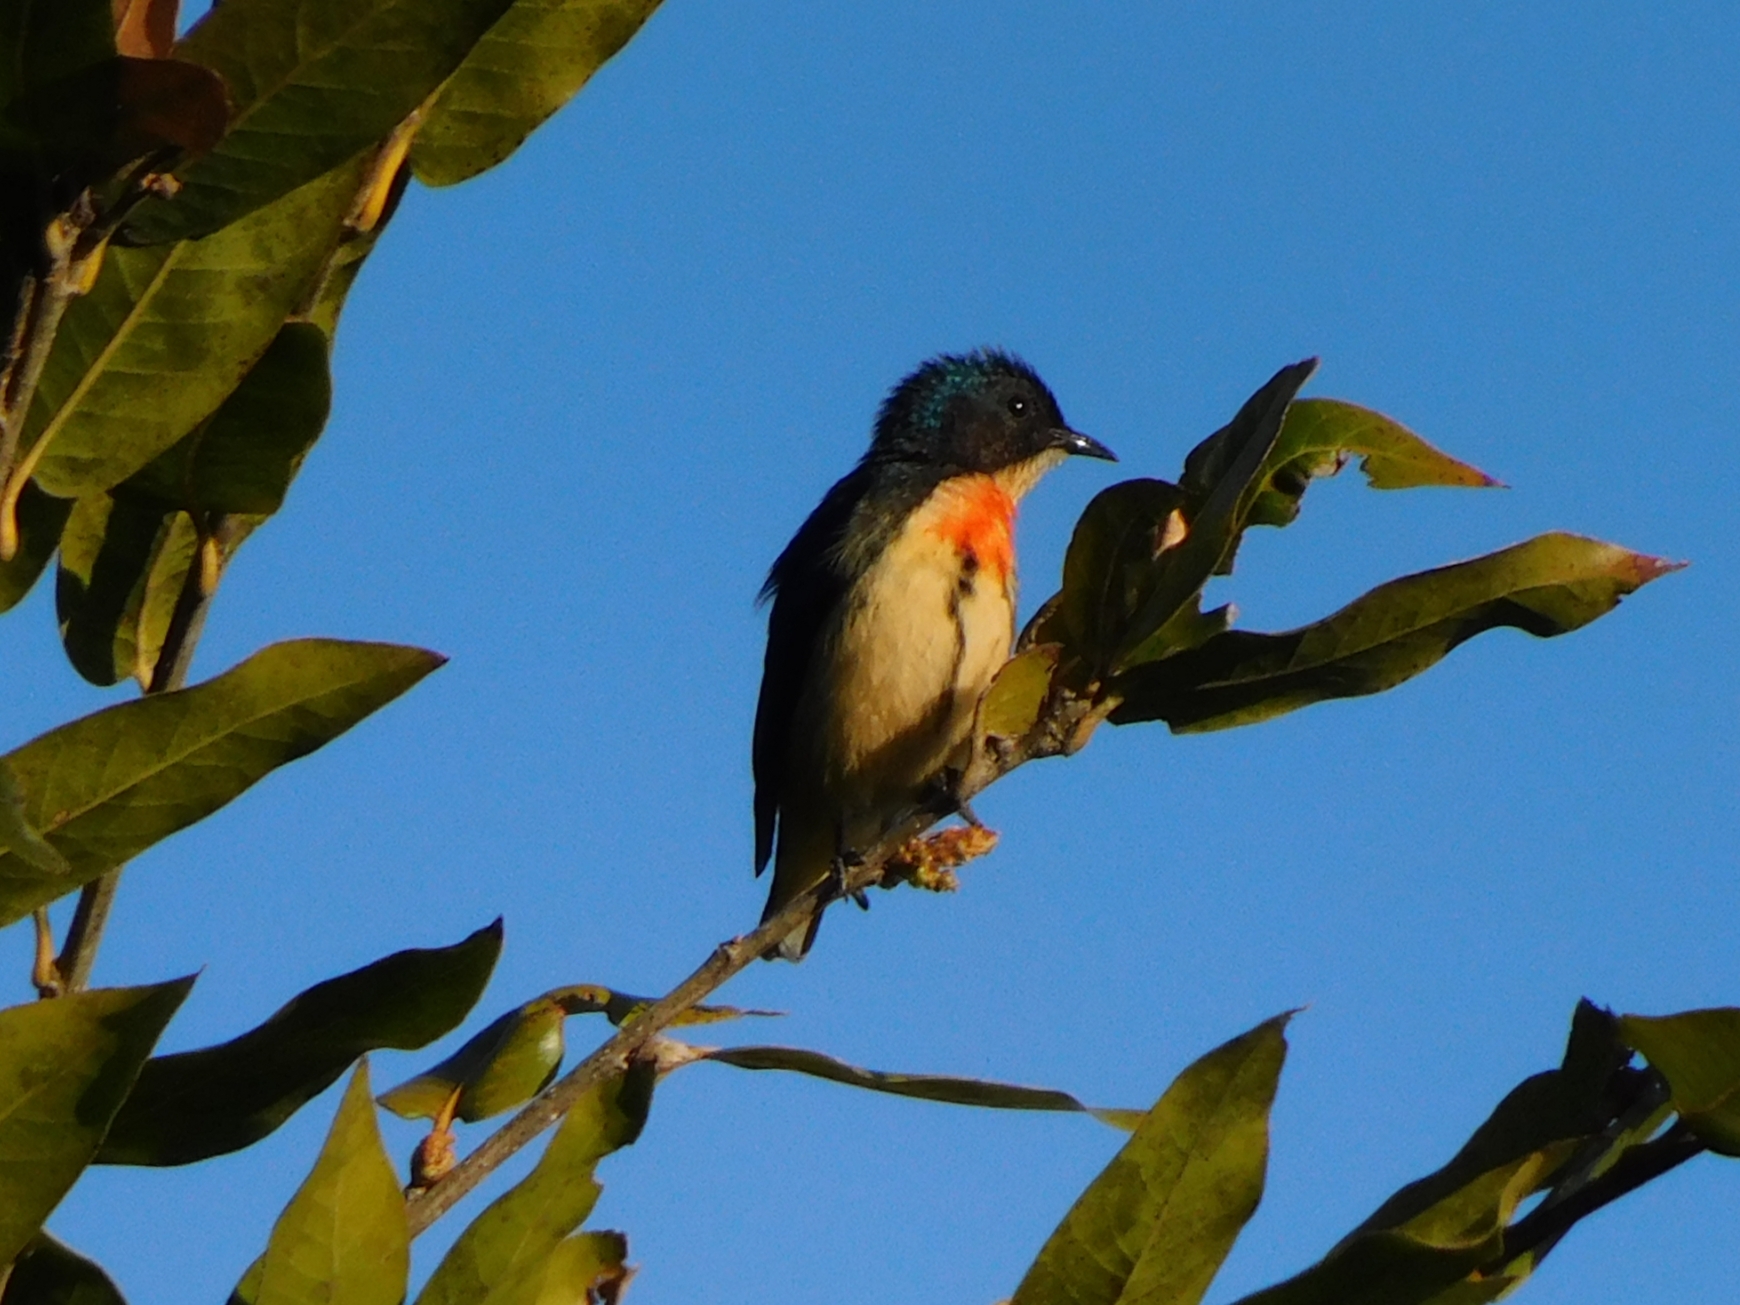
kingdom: Animalia
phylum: Chordata
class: Aves
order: Passeriformes
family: Dicaeidae
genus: Dicaeum
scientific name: Dicaeum ignipectus
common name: Fire-breasted flowerpecker
